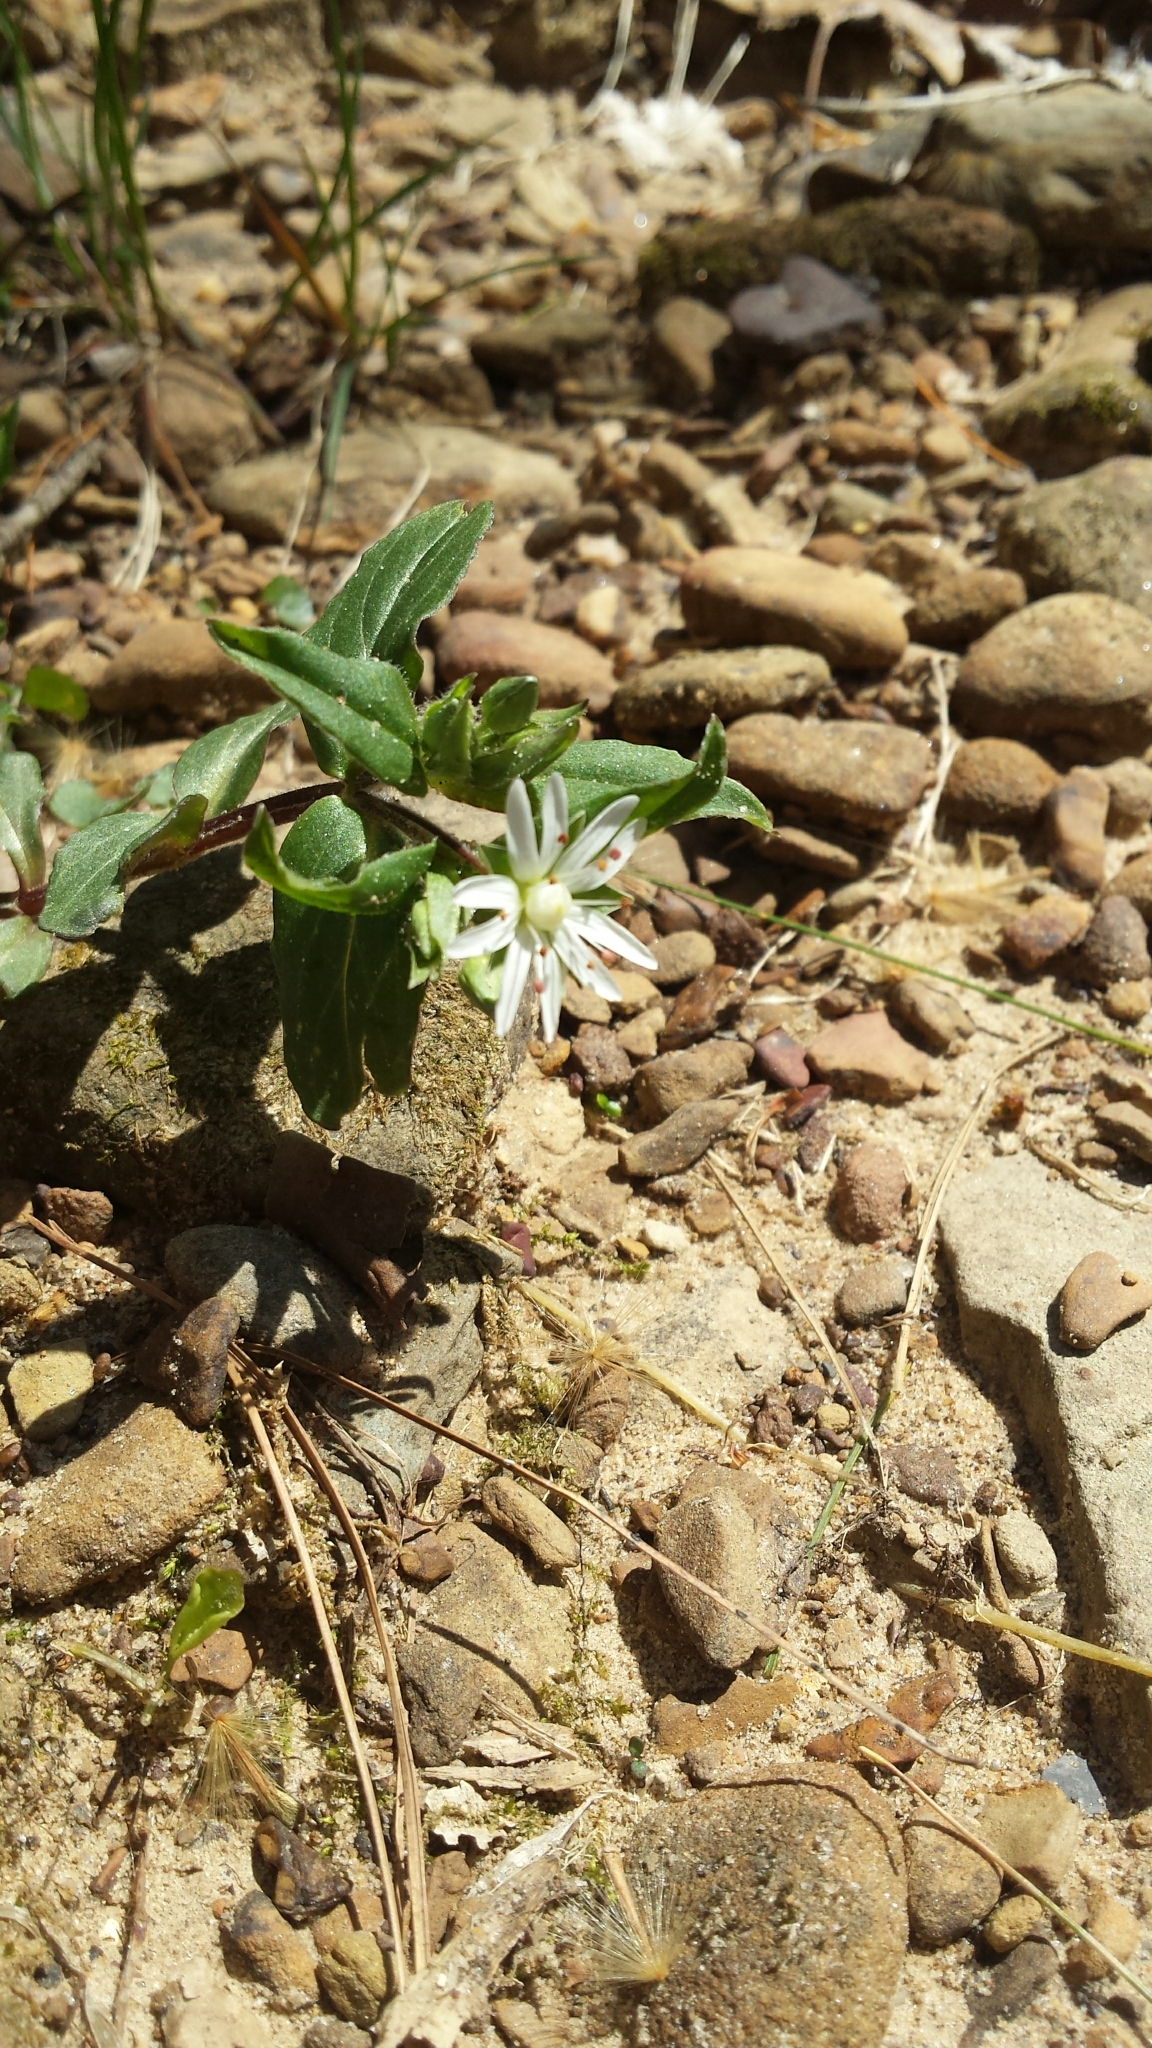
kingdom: Plantae
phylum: Tracheophyta
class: Magnoliopsida
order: Caryophyllales
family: Caryophyllaceae
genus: Stellaria
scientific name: Stellaria pubera
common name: Star chickweed
